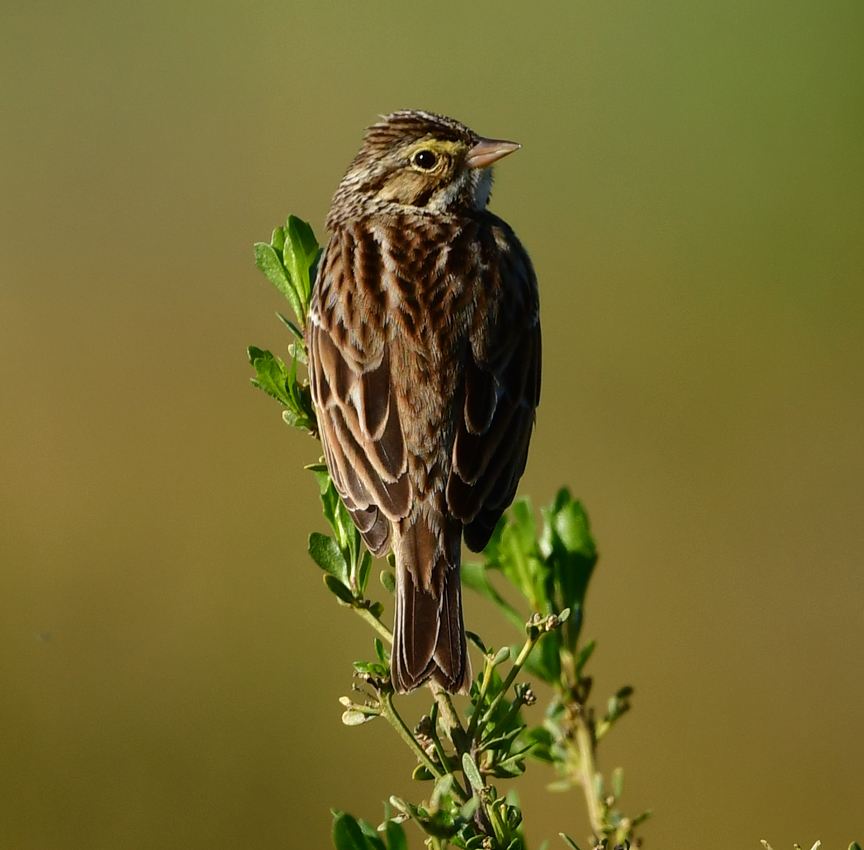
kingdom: Animalia
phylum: Chordata
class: Aves
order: Passeriformes
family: Passerellidae
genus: Passerculus
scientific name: Passerculus sandwichensis
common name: Savannah sparrow
